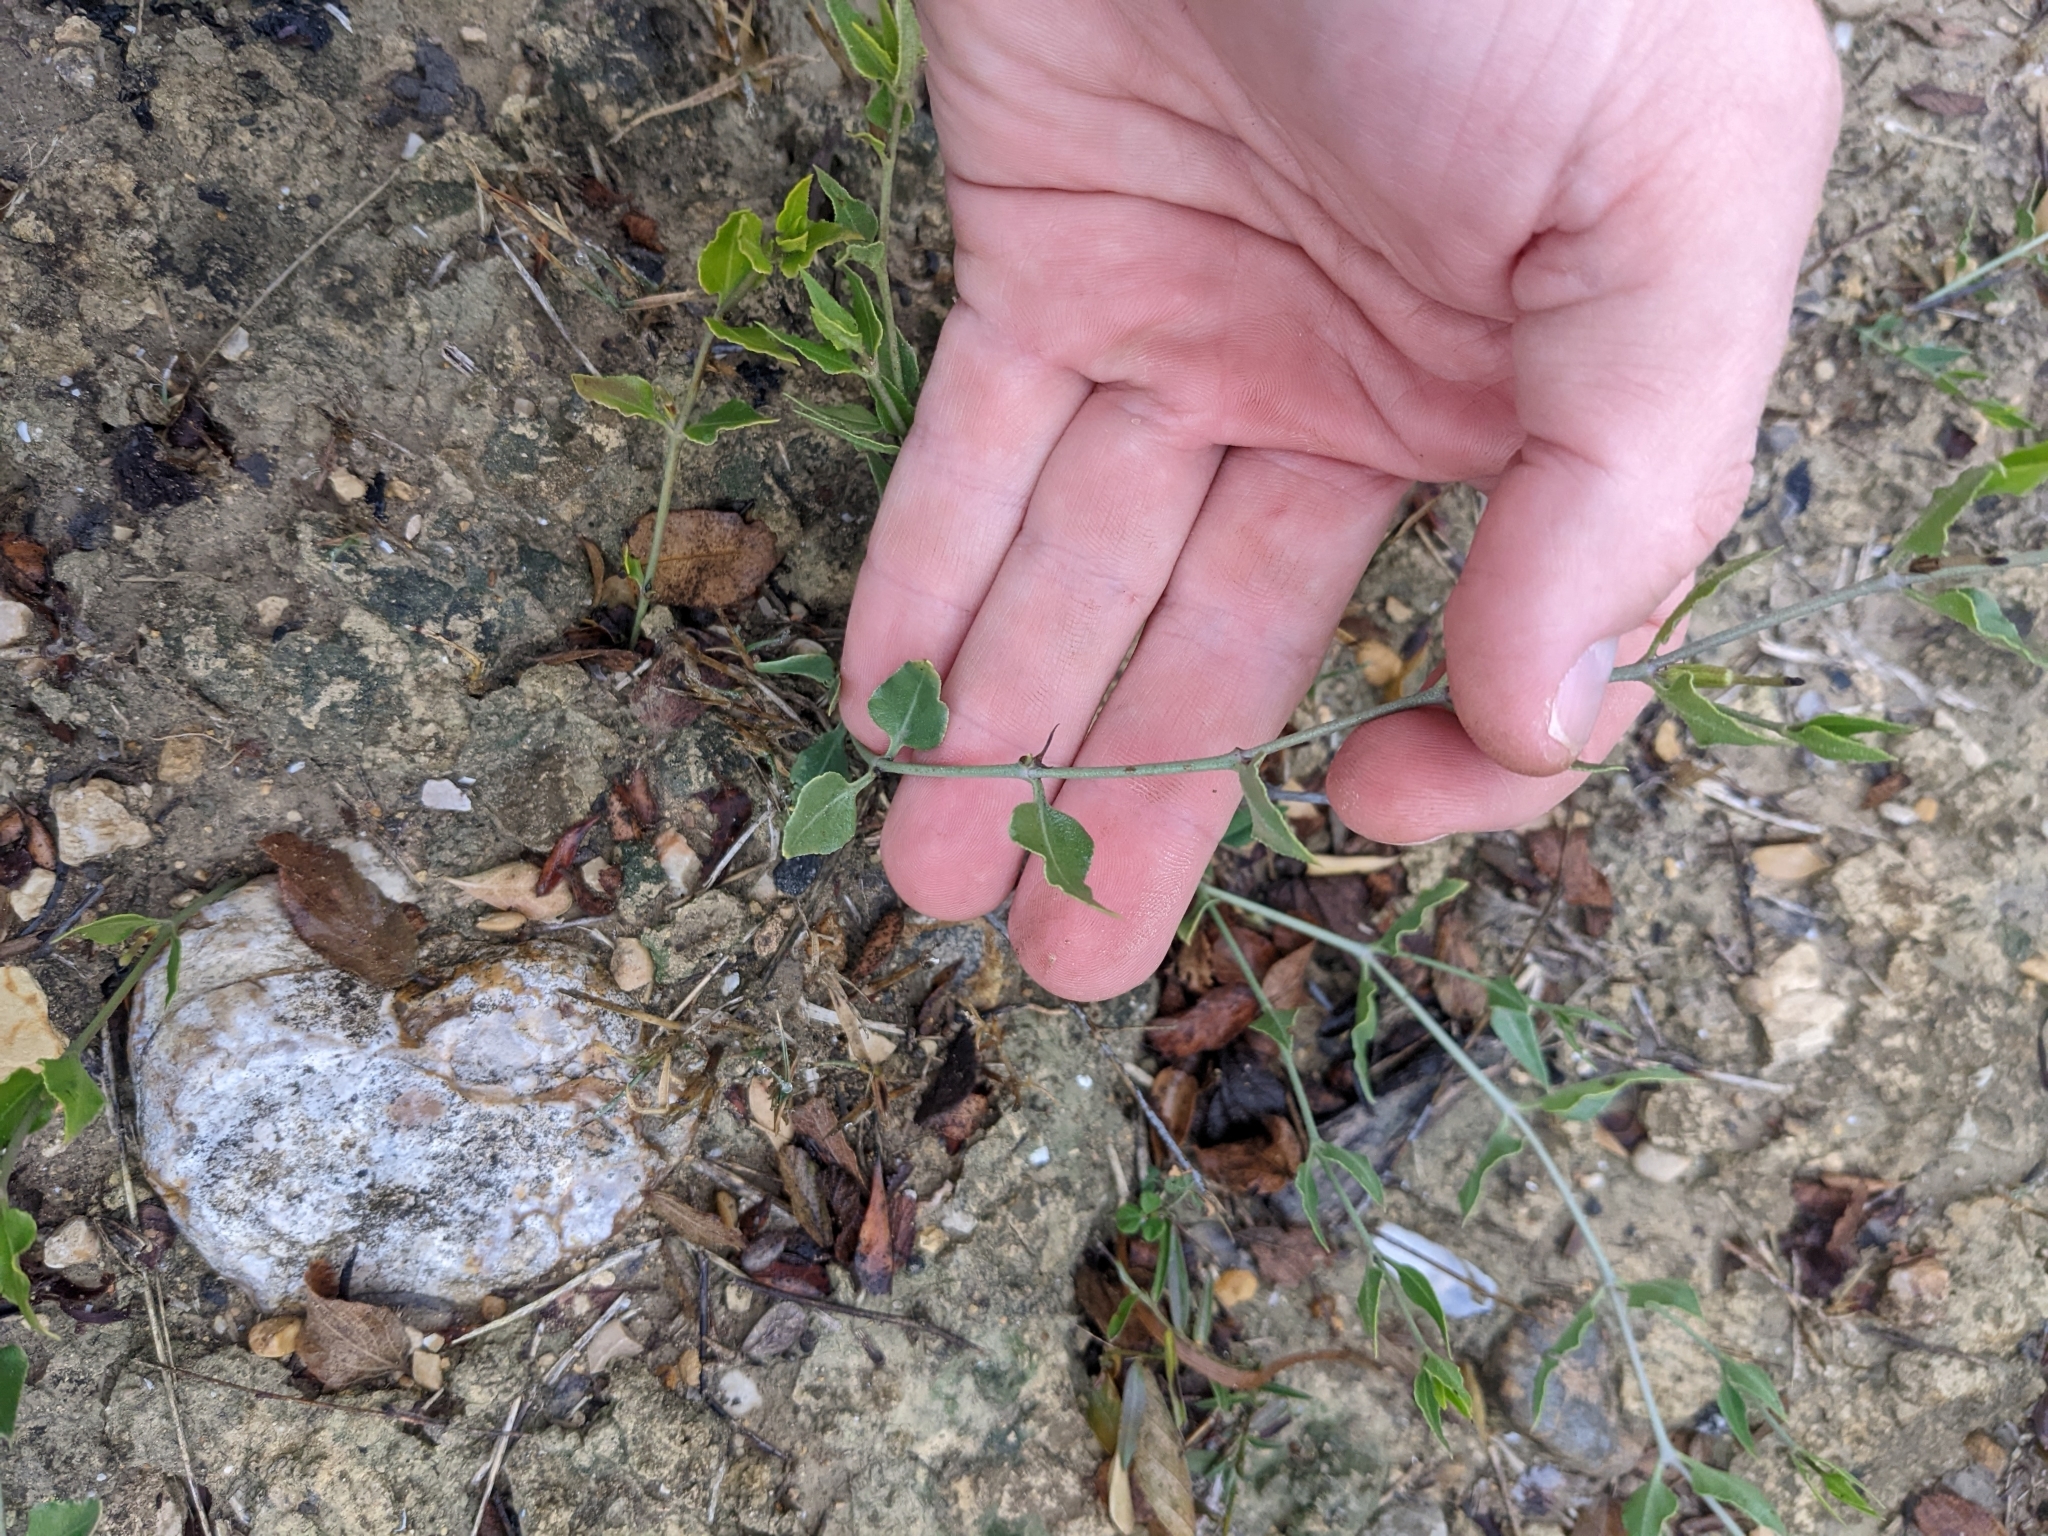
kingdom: Plantae
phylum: Tracheophyta
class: Magnoliopsida
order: Caryophyllales
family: Nyctaginaceae
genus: Acleisanthes
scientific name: Acleisanthes longiflora
